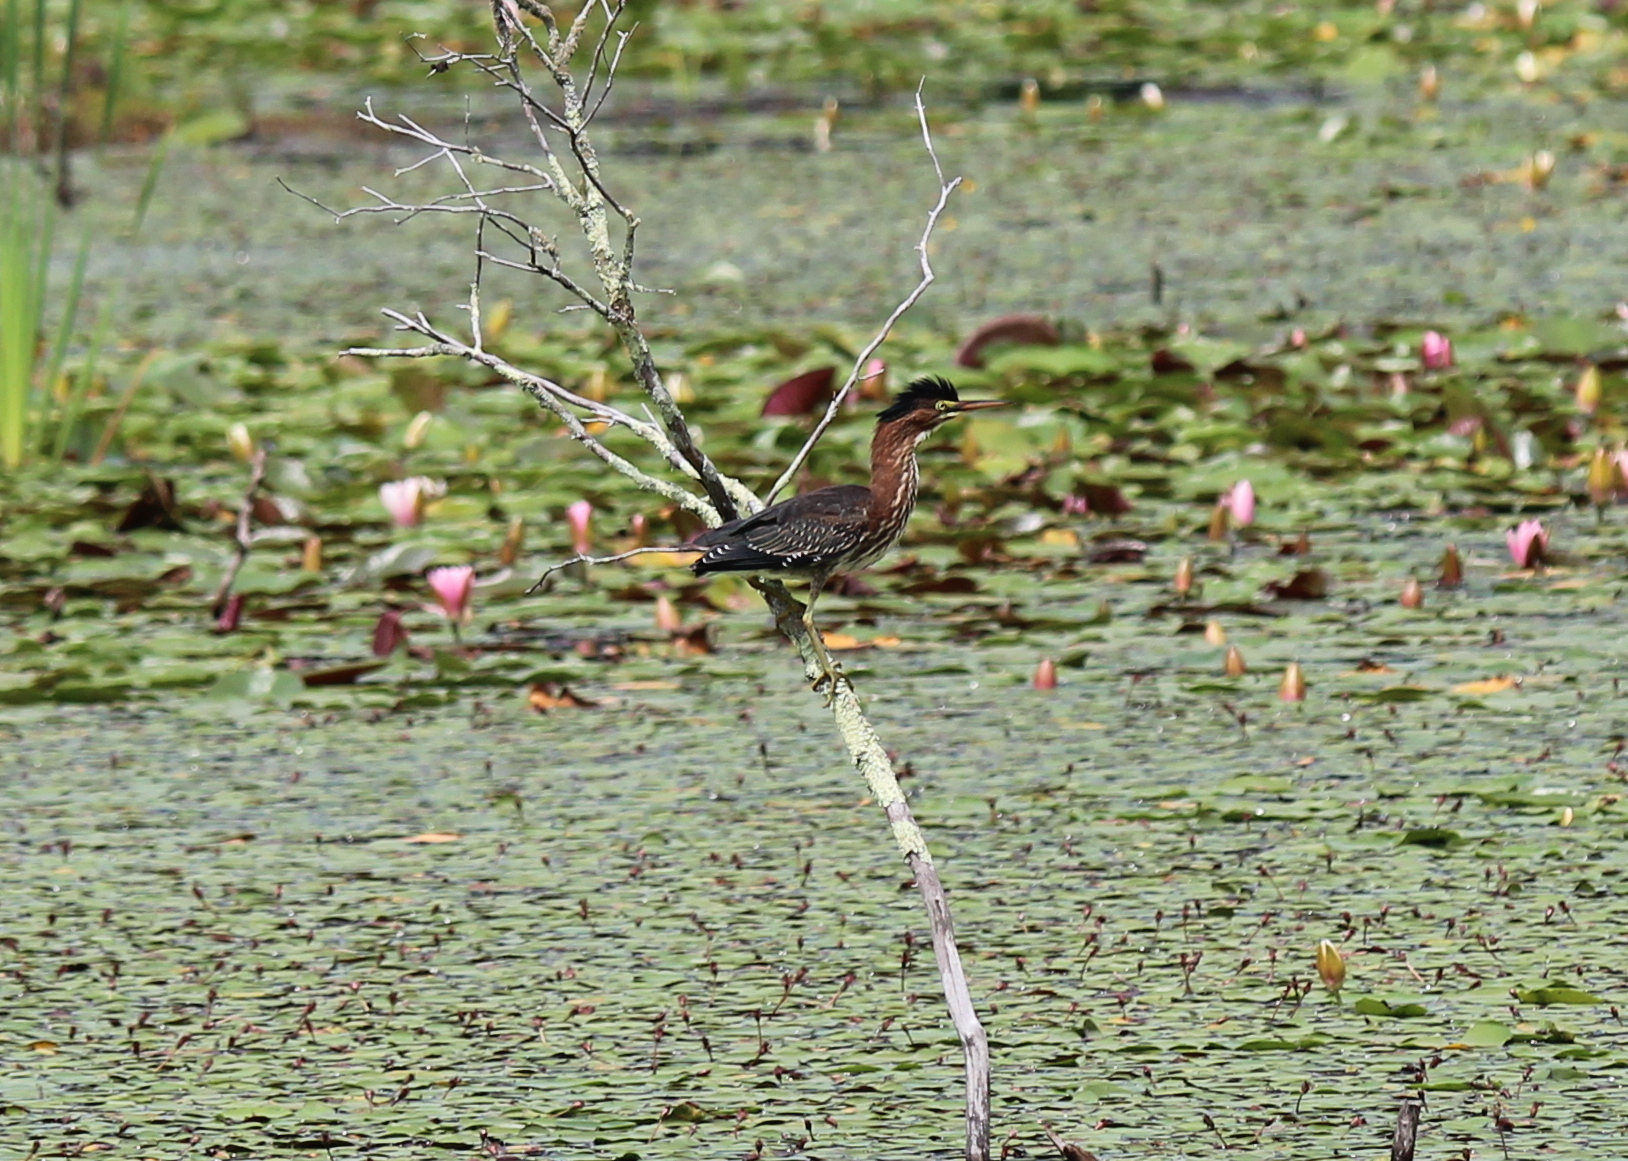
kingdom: Animalia
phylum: Chordata
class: Aves
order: Pelecaniformes
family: Ardeidae
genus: Butorides
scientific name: Butorides virescens
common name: Green heron
